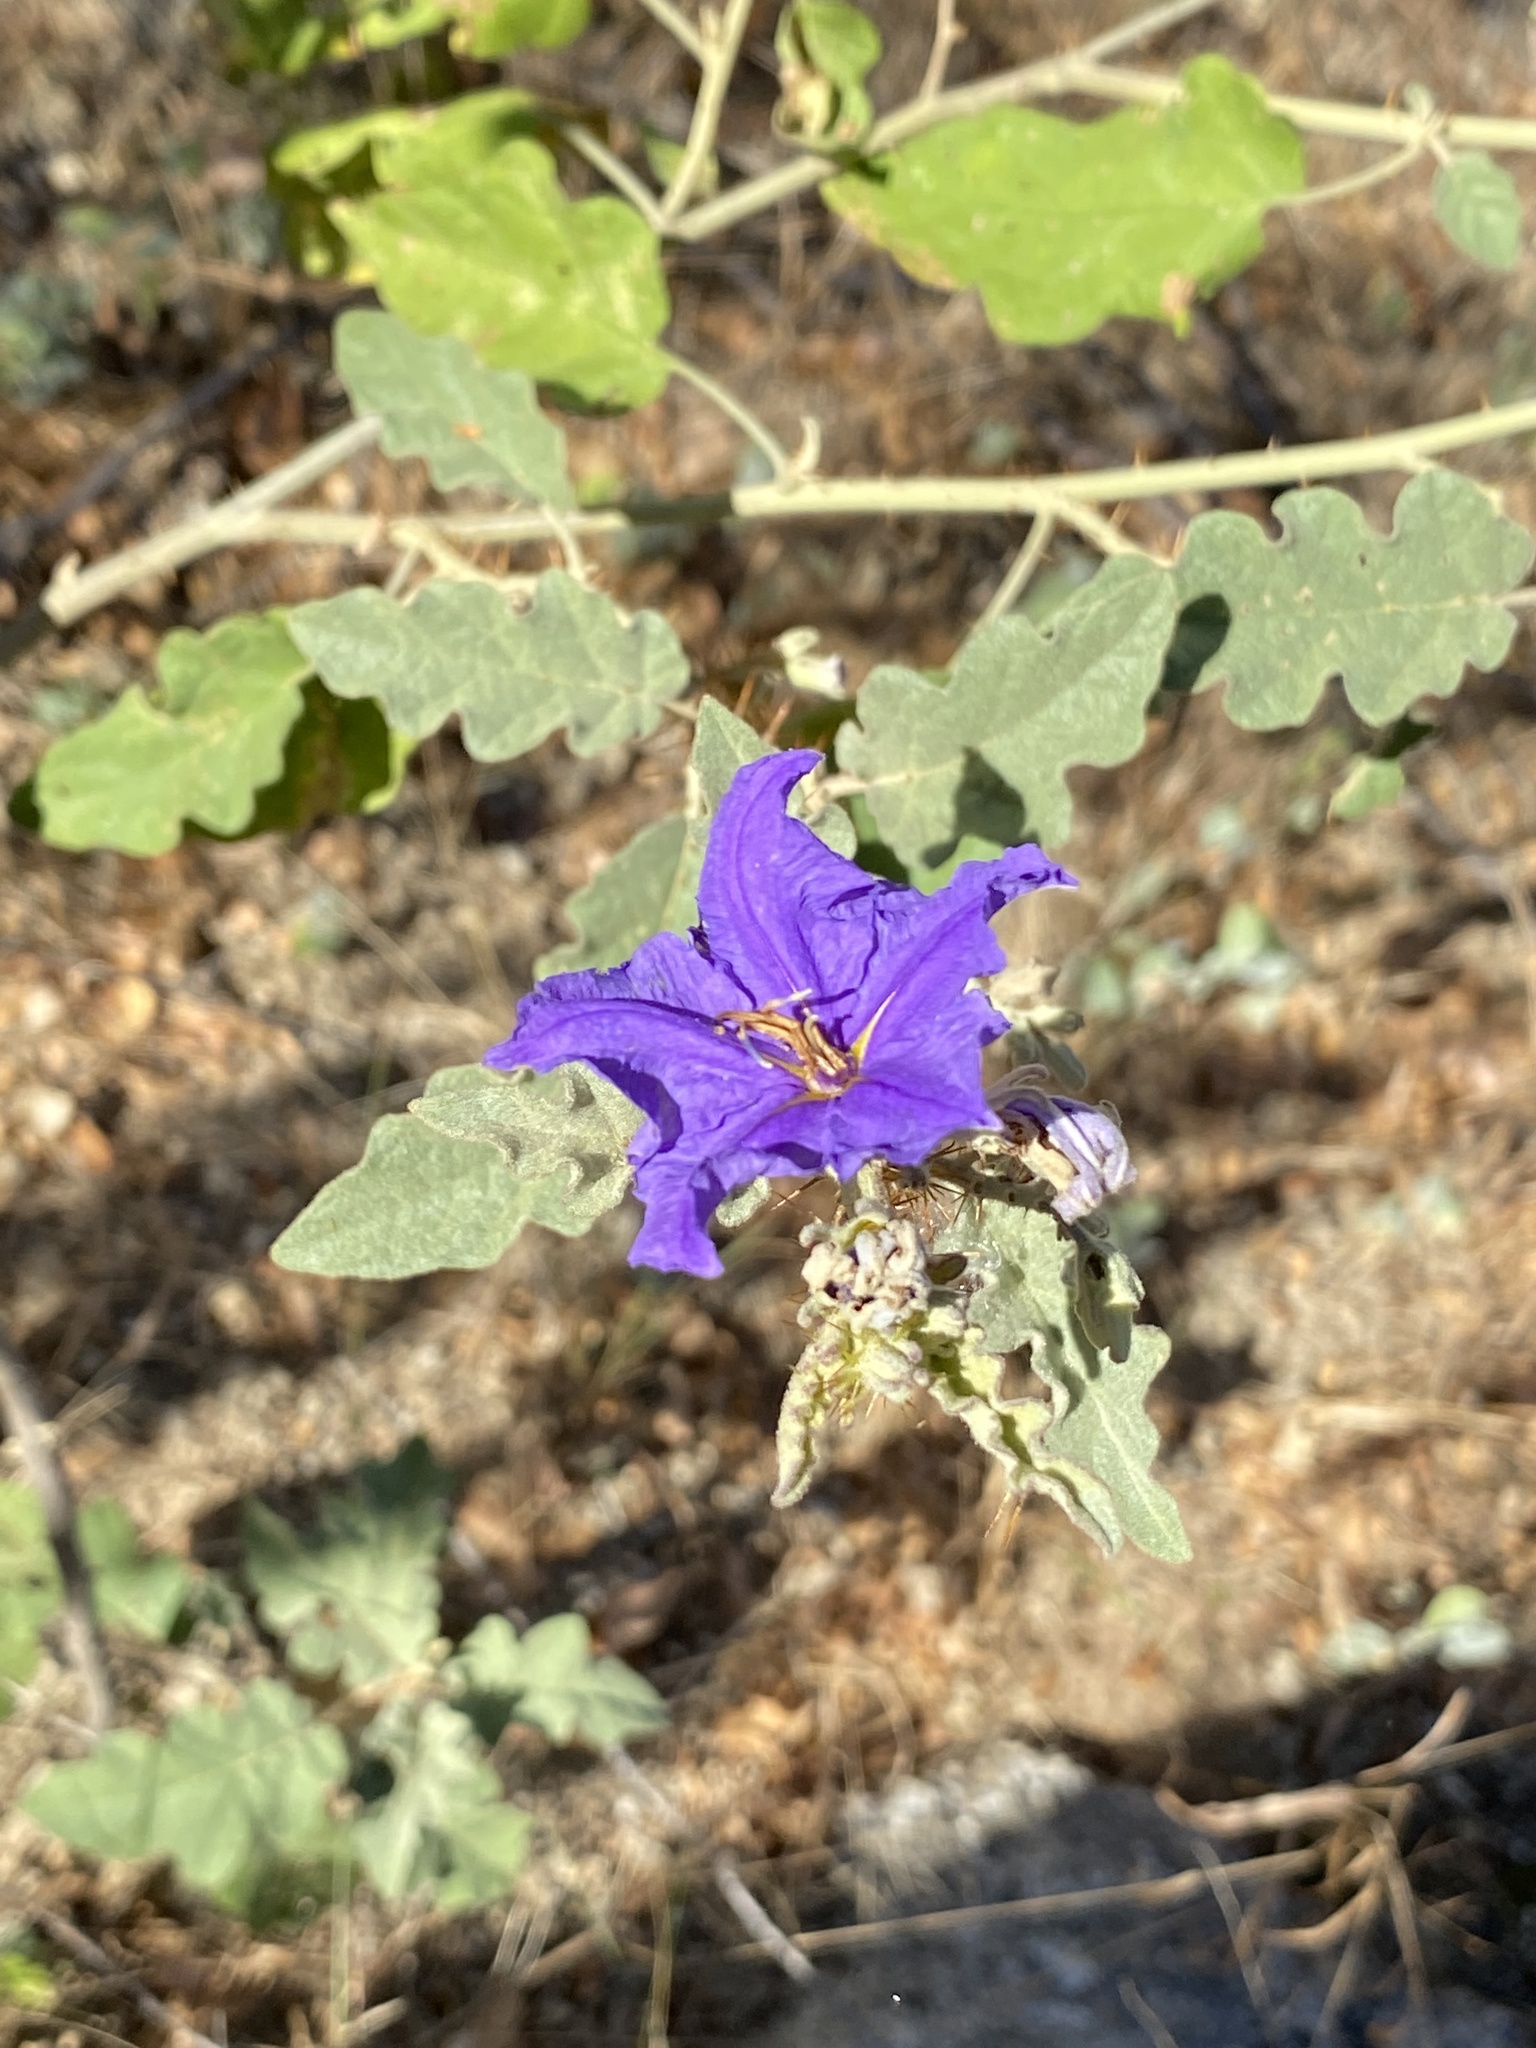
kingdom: Plantae
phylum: Tracheophyta
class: Magnoliopsida
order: Solanales
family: Solanaceae
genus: Solanum
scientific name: Solanum houstonii
